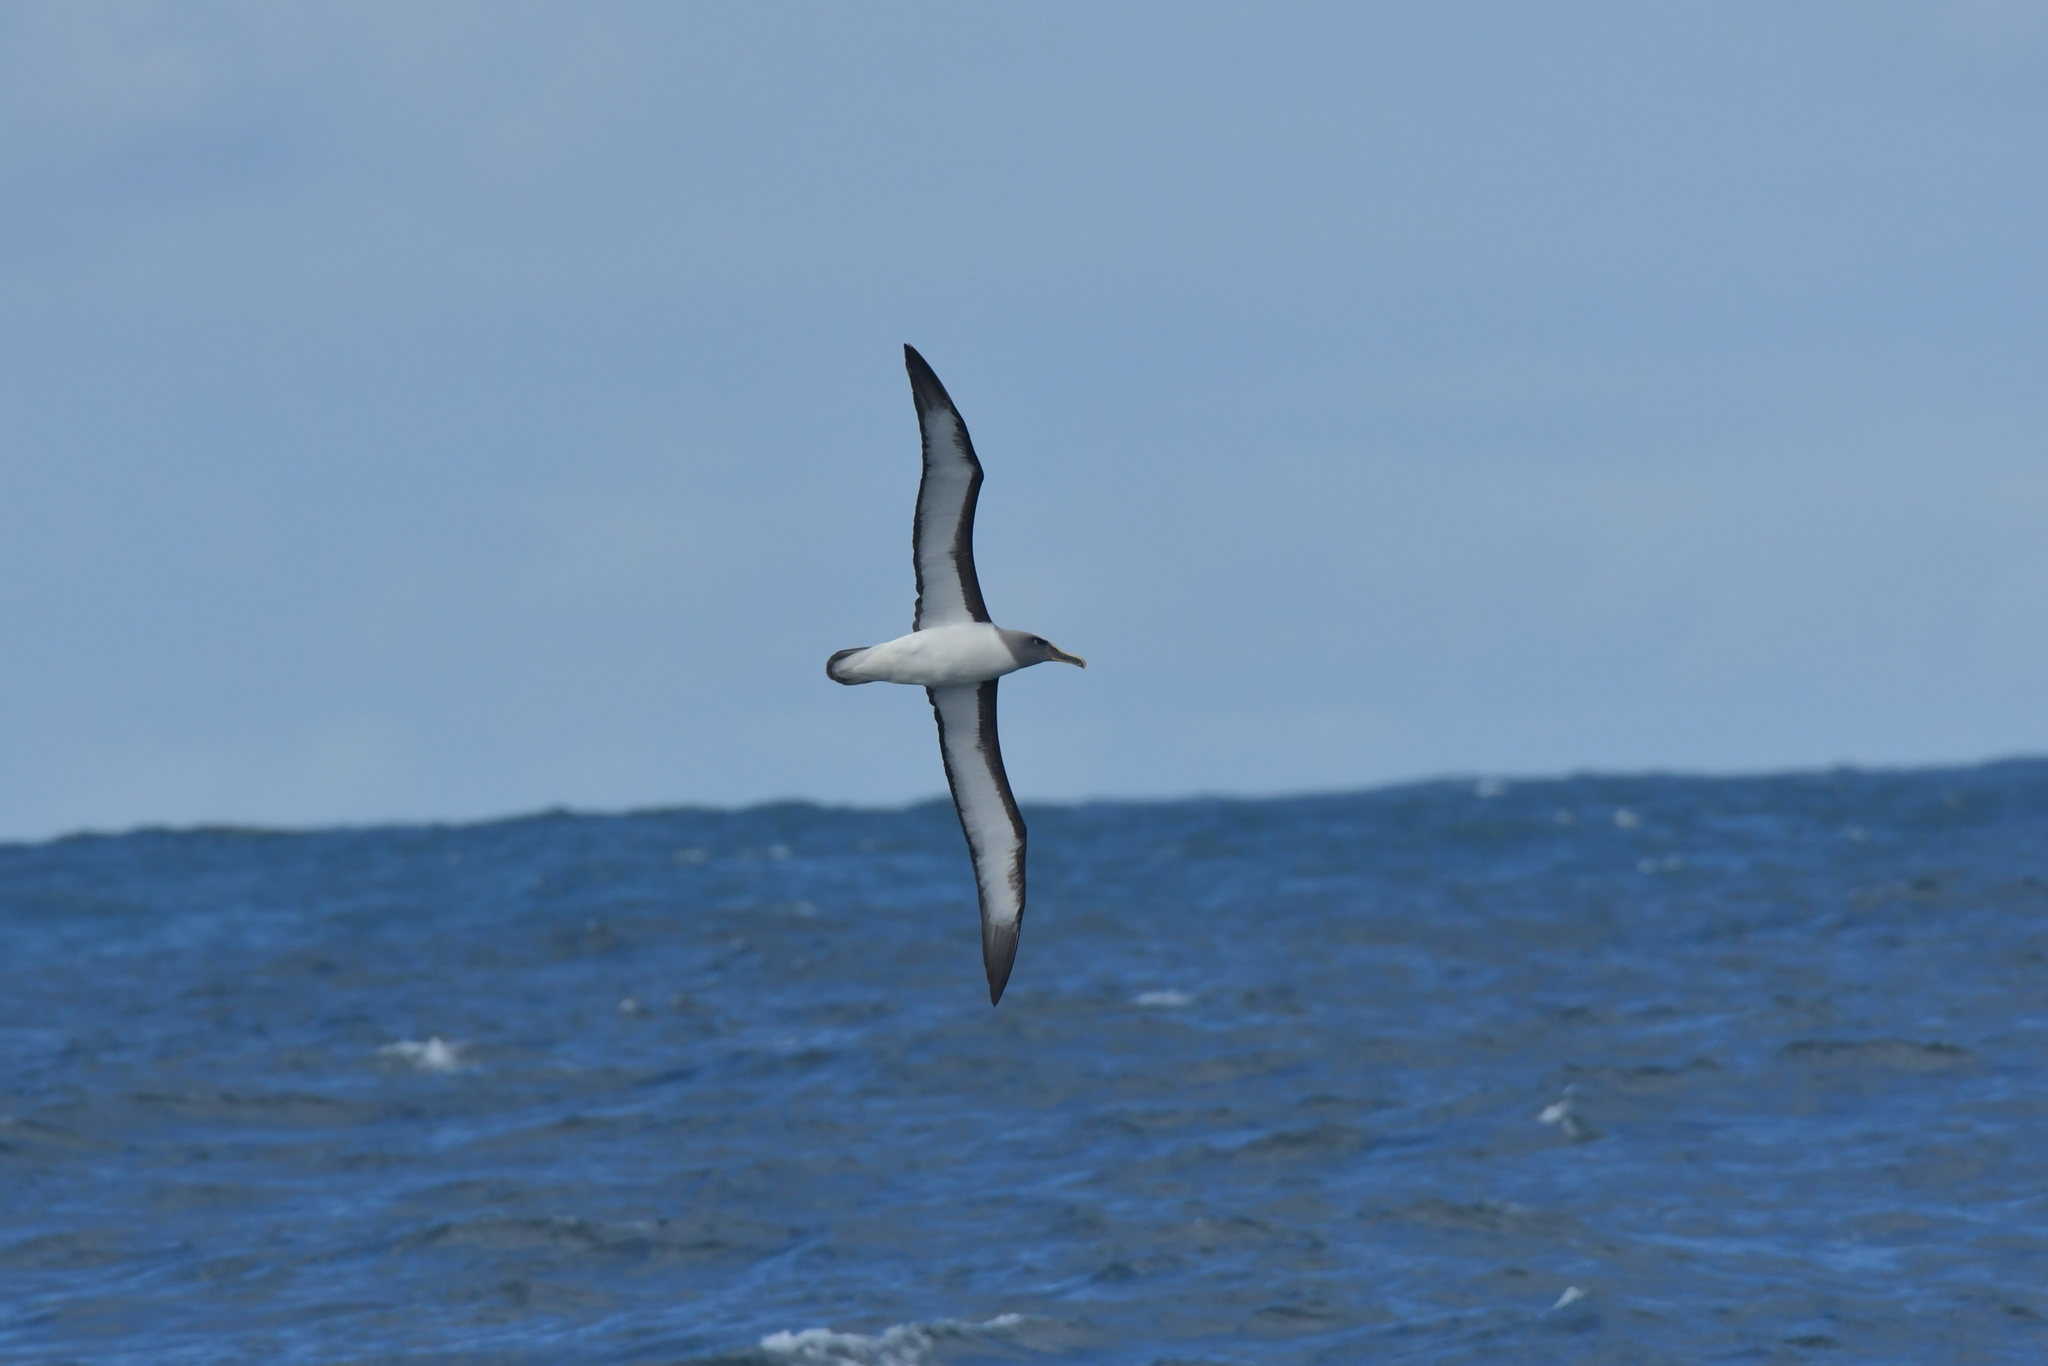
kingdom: Animalia
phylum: Chordata
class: Aves
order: Procellariiformes
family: Diomedeidae
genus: Thalassarche
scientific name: Thalassarche bulleri
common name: Buller's albatross
